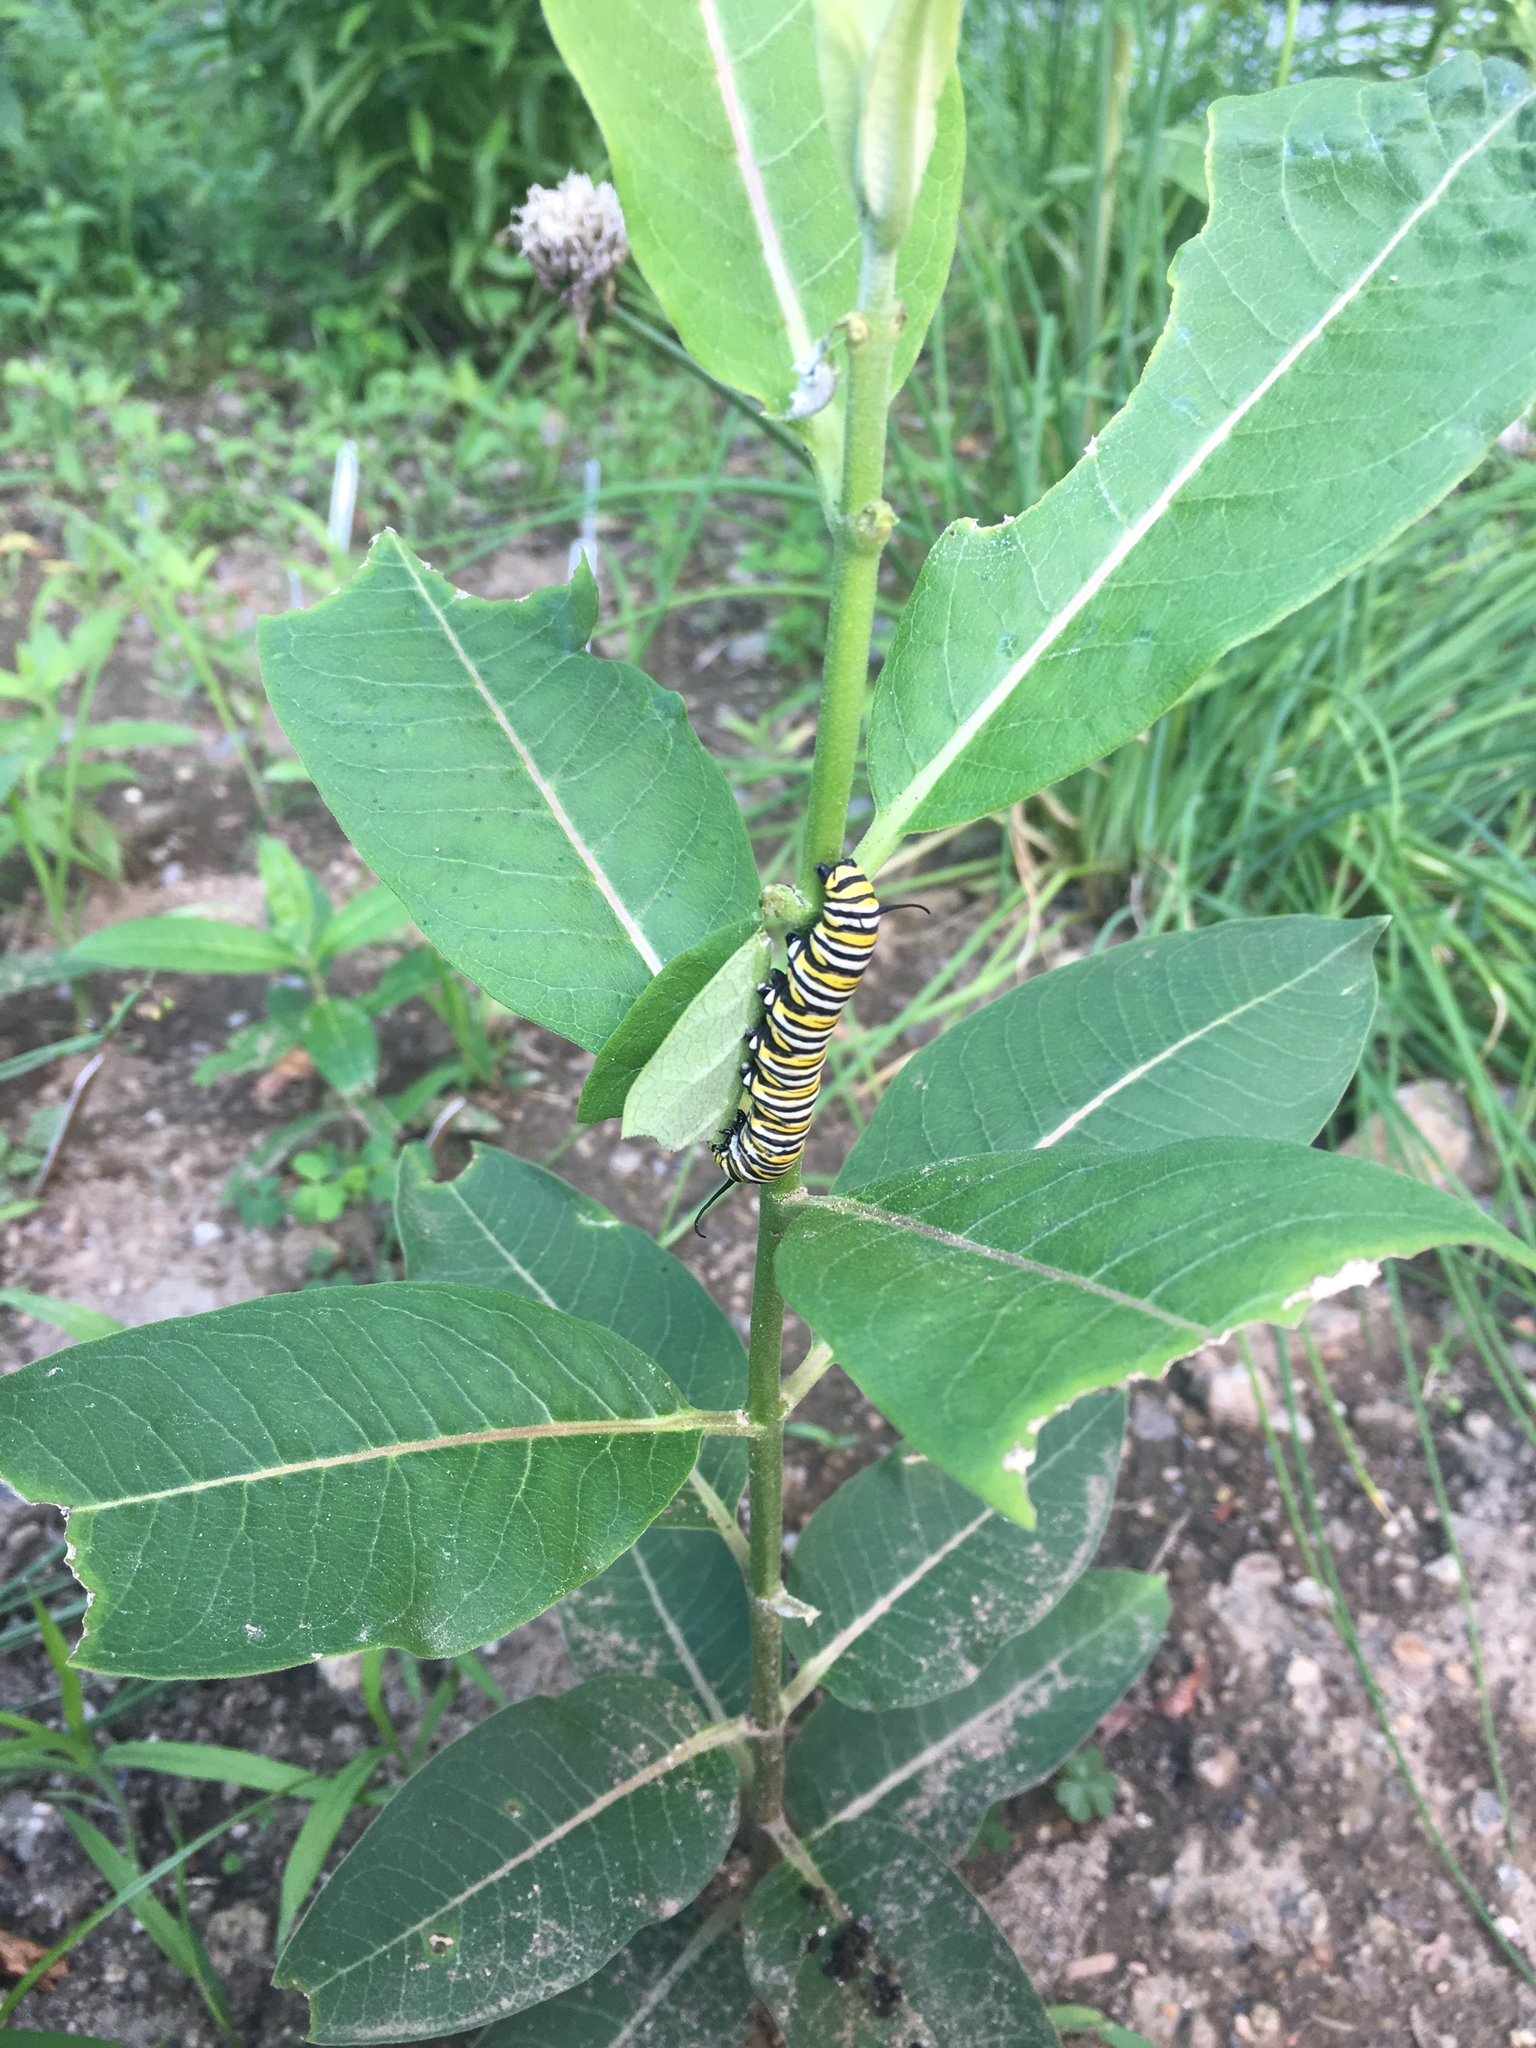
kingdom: Animalia
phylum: Arthropoda
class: Insecta
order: Lepidoptera
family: Nymphalidae
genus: Danaus
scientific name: Danaus plexippus
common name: Monarch
